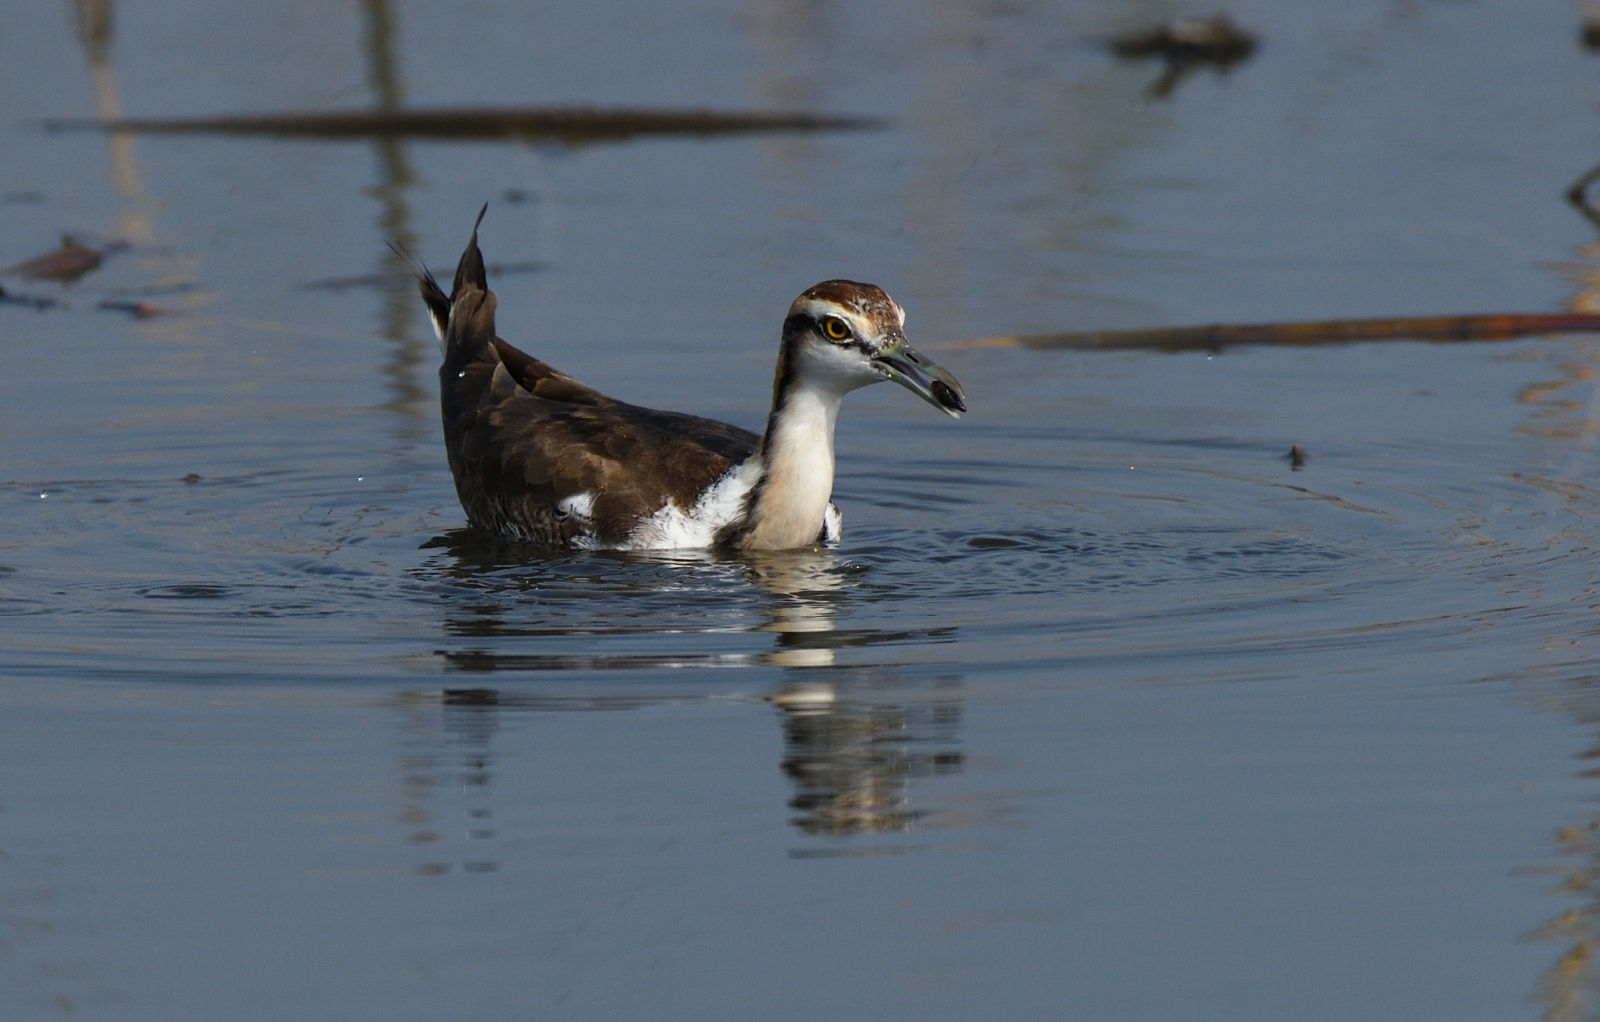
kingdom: Animalia
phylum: Chordata
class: Aves
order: Charadriiformes
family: Jacanidae
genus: Hydrophasianus
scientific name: Hydrophasianus chirurgus
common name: Pheasant-tailed jacana
